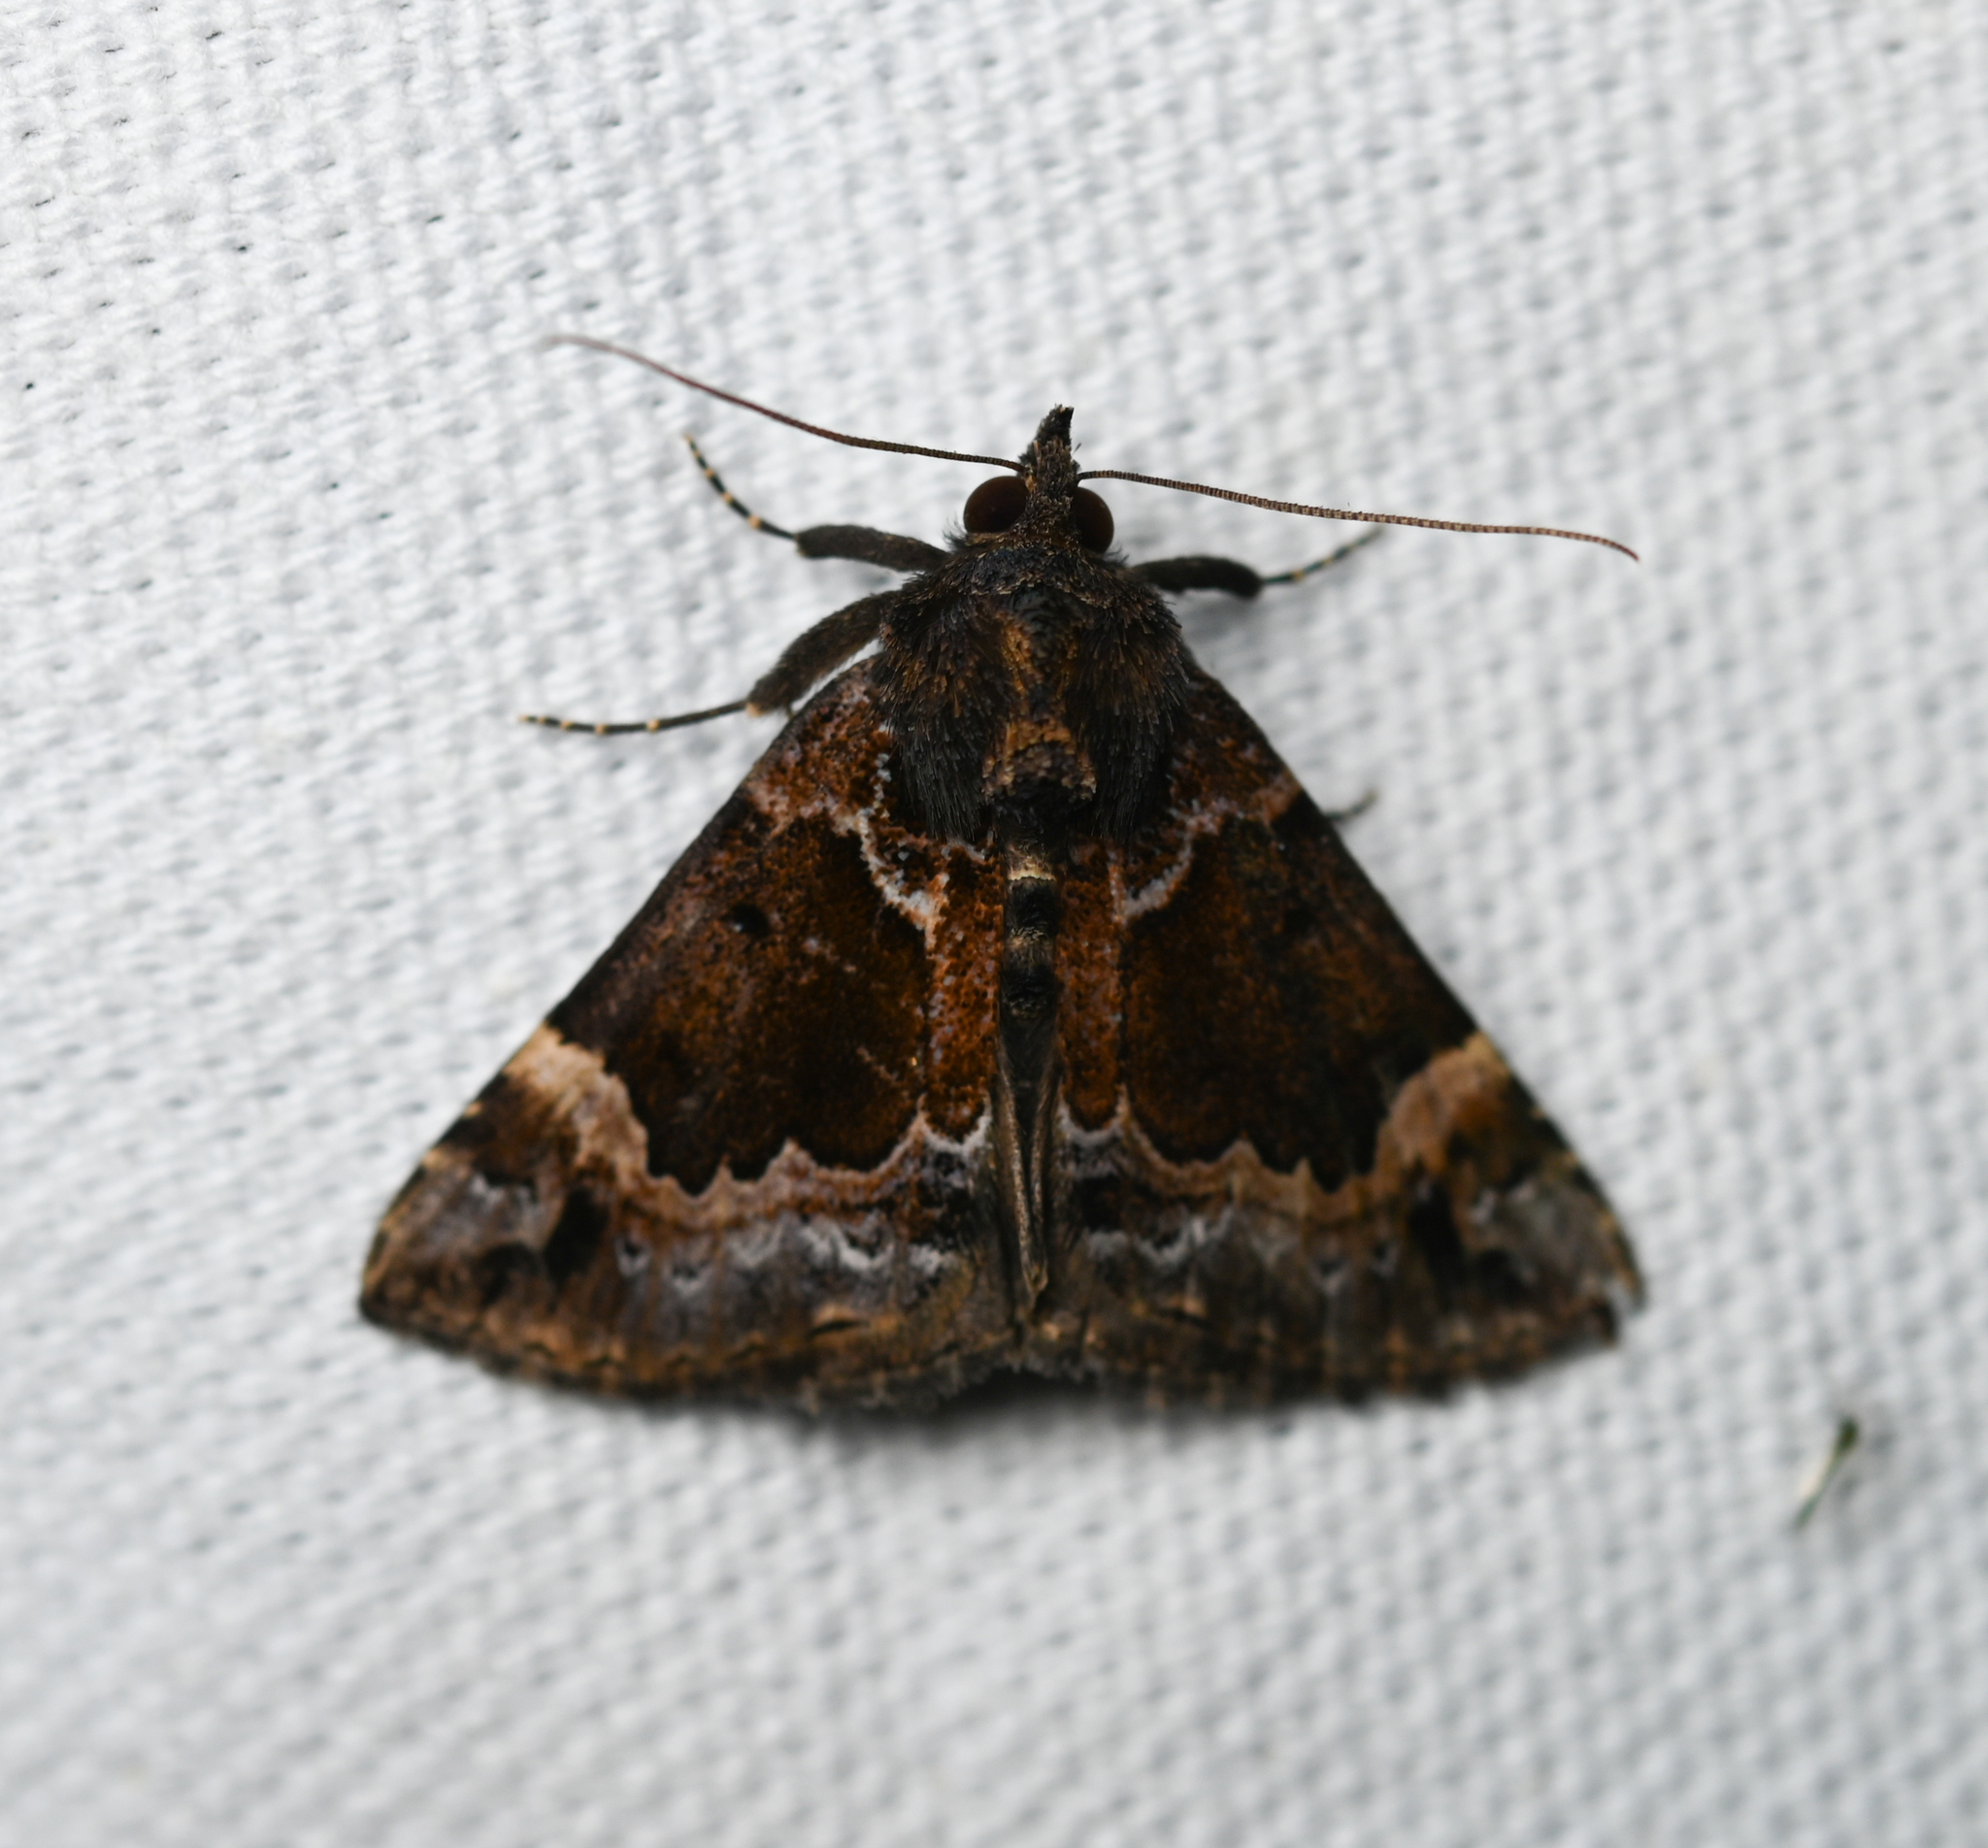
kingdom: Animalia
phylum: Arthropoda
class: Insecta
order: Lepidoptera
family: Erebidae
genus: Hypena
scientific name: Hypena palparia
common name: Mottled bomolocha moth
